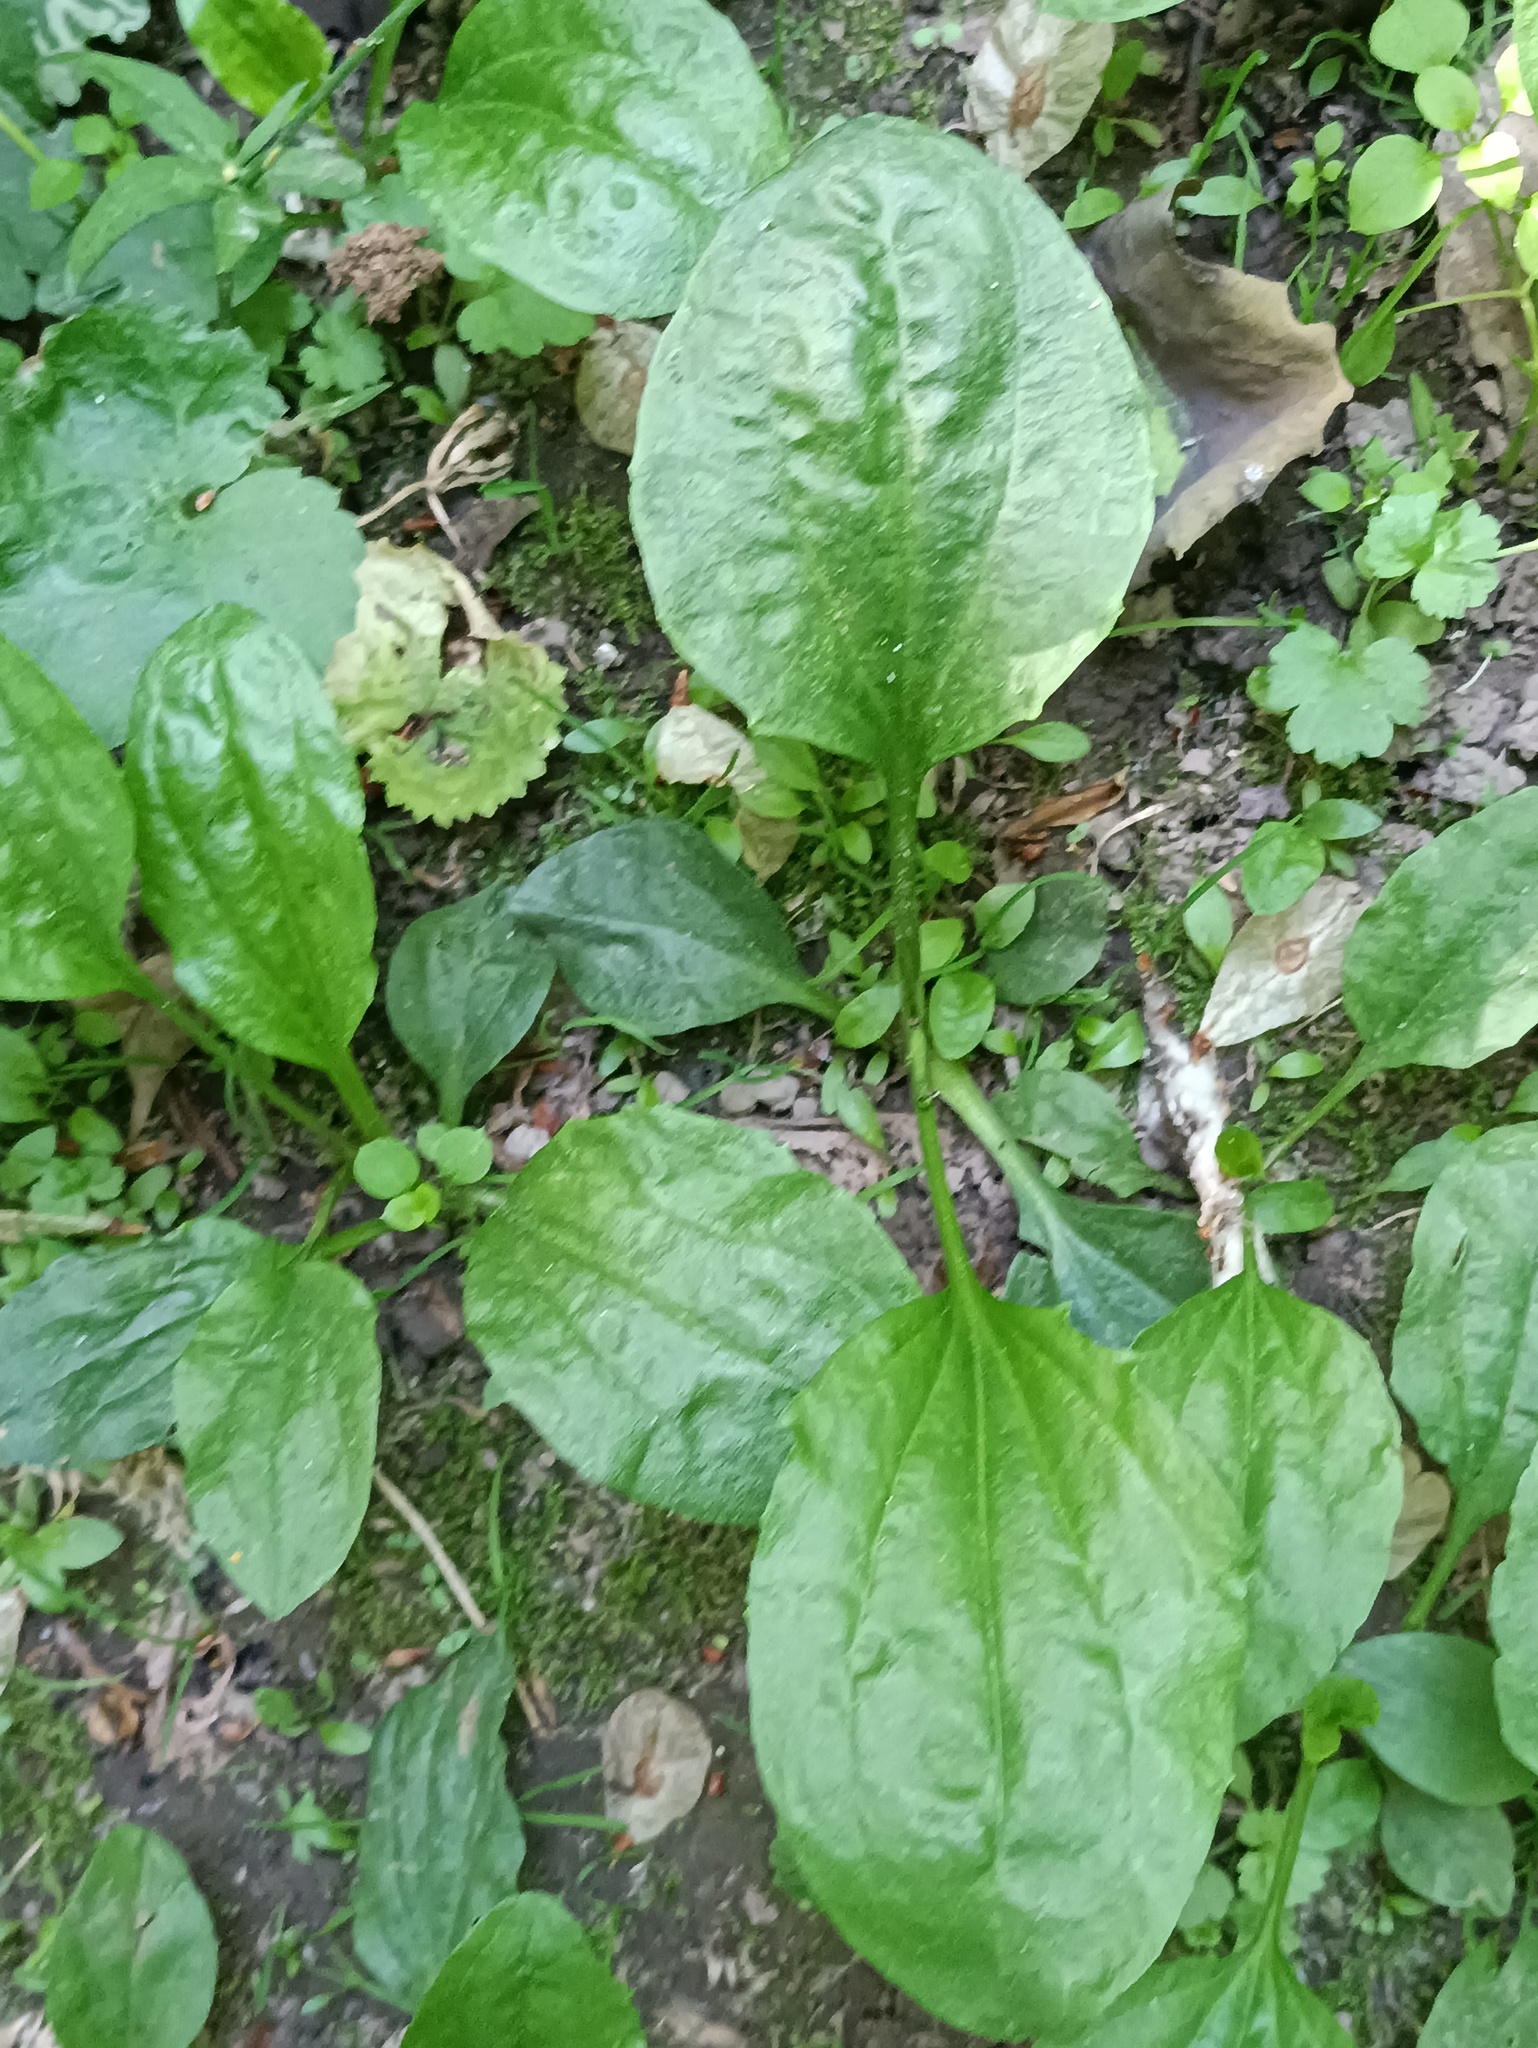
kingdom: Plantae
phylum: Tracheophyta
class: Magnoliopsida
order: Lamiales
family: Plantaginaceae
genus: Plantago
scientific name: Plantago major
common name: Common plantain
